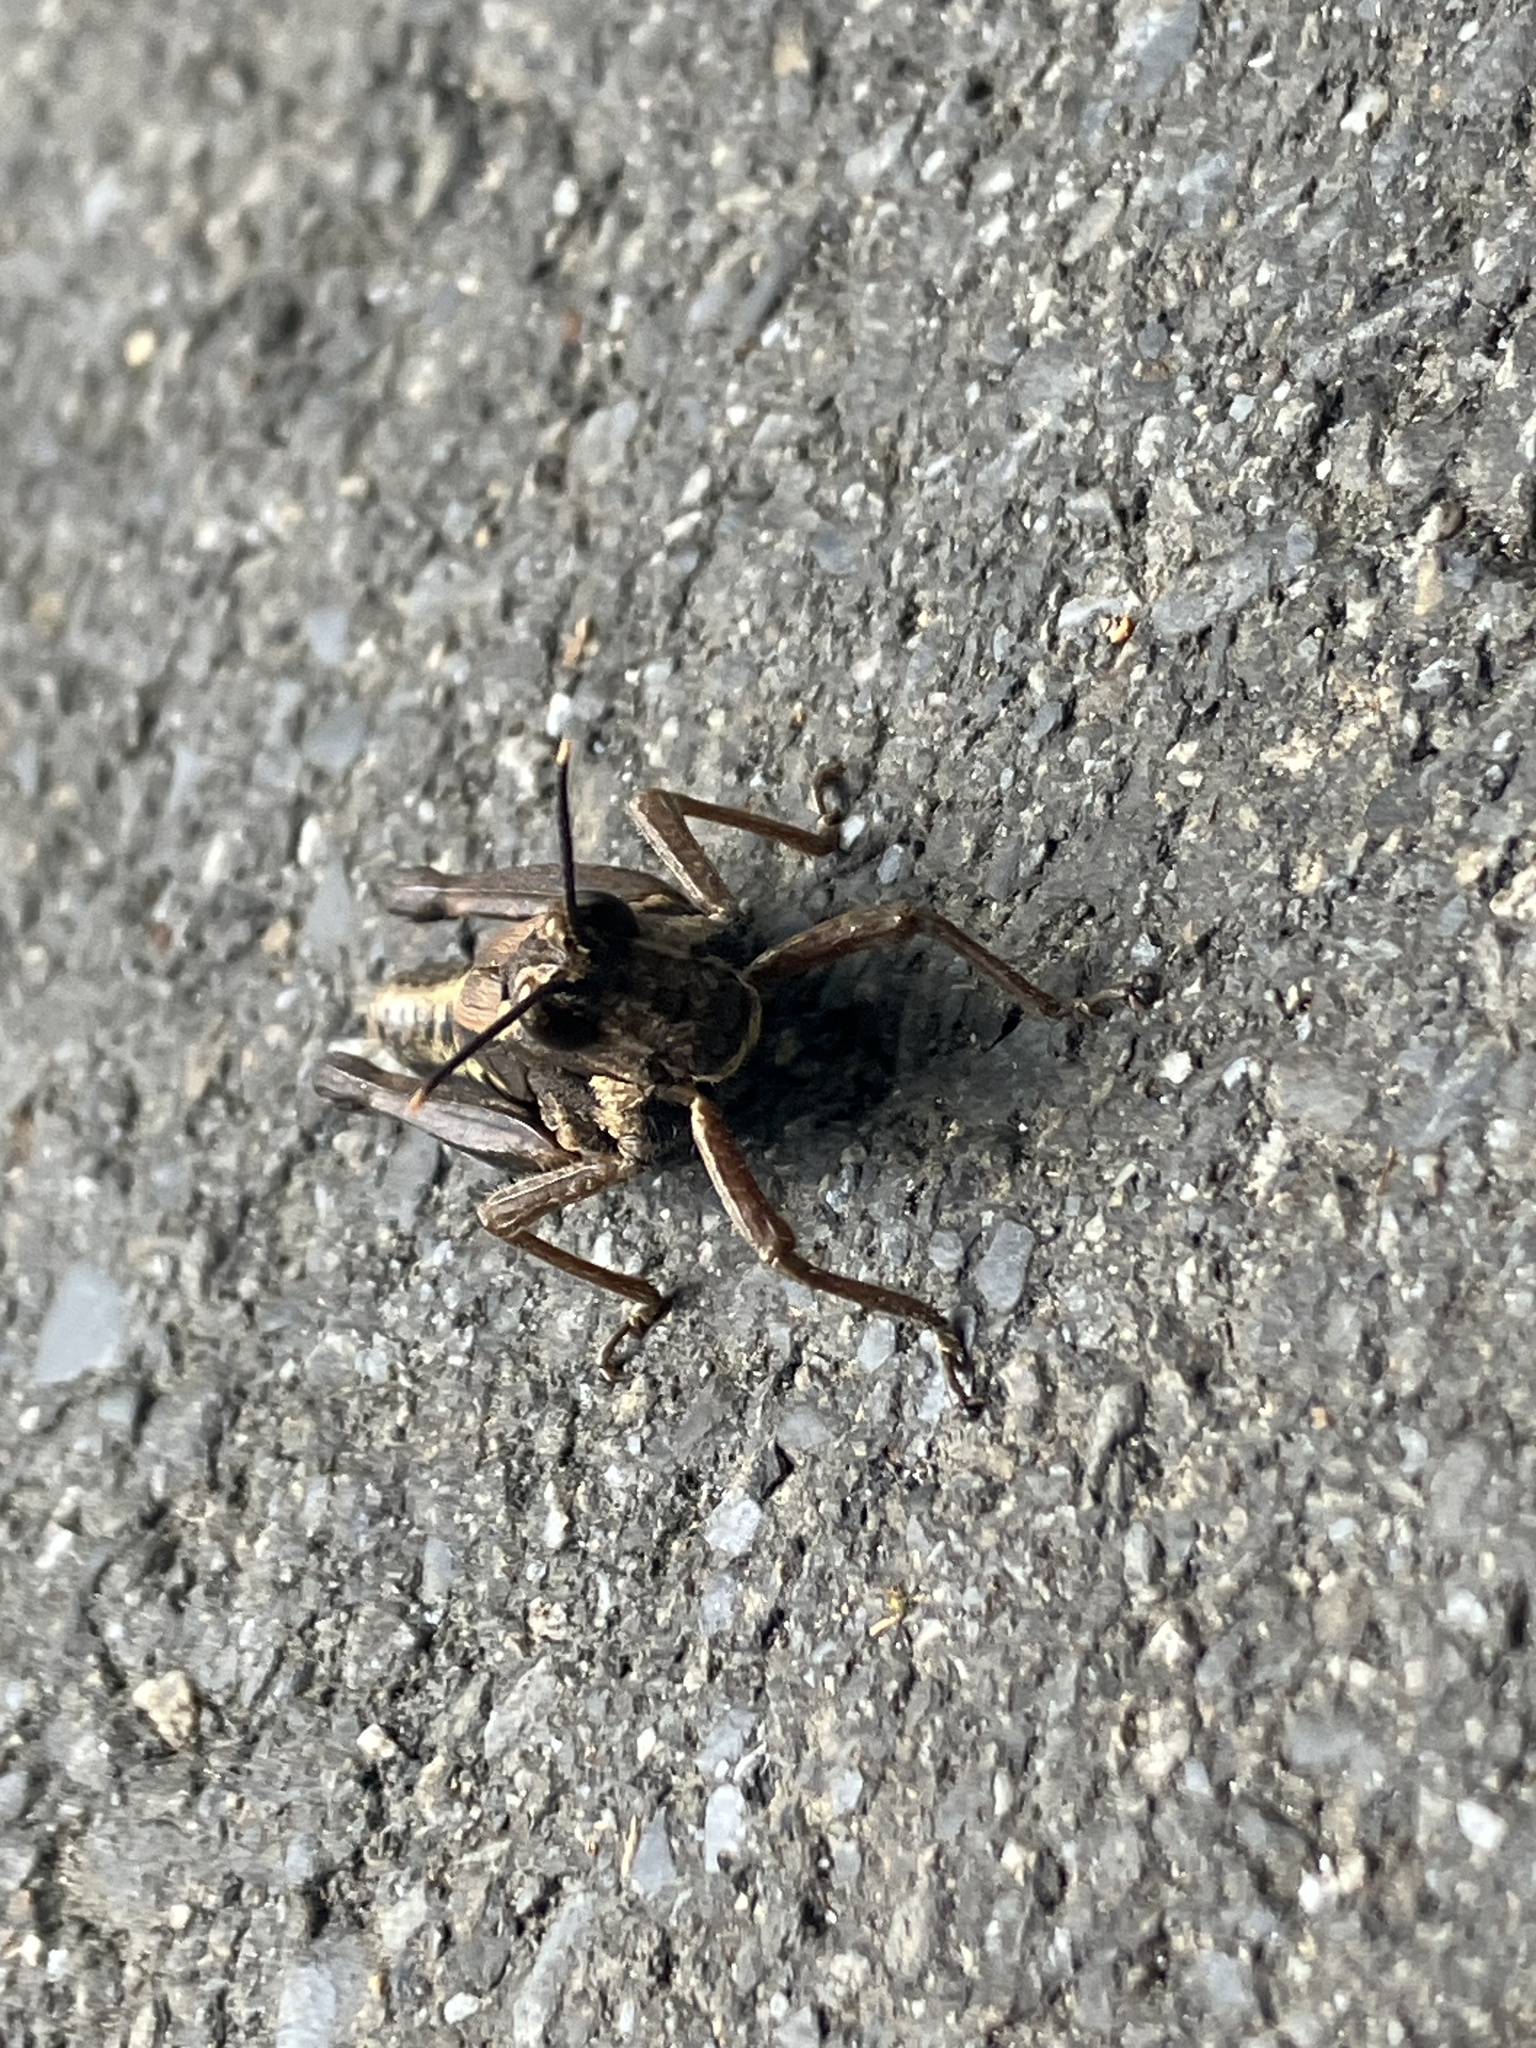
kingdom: Animalia
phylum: Arthropoda
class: Insecta
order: Orthoptera
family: Acrididae
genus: Traulia
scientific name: Traulia ornata
